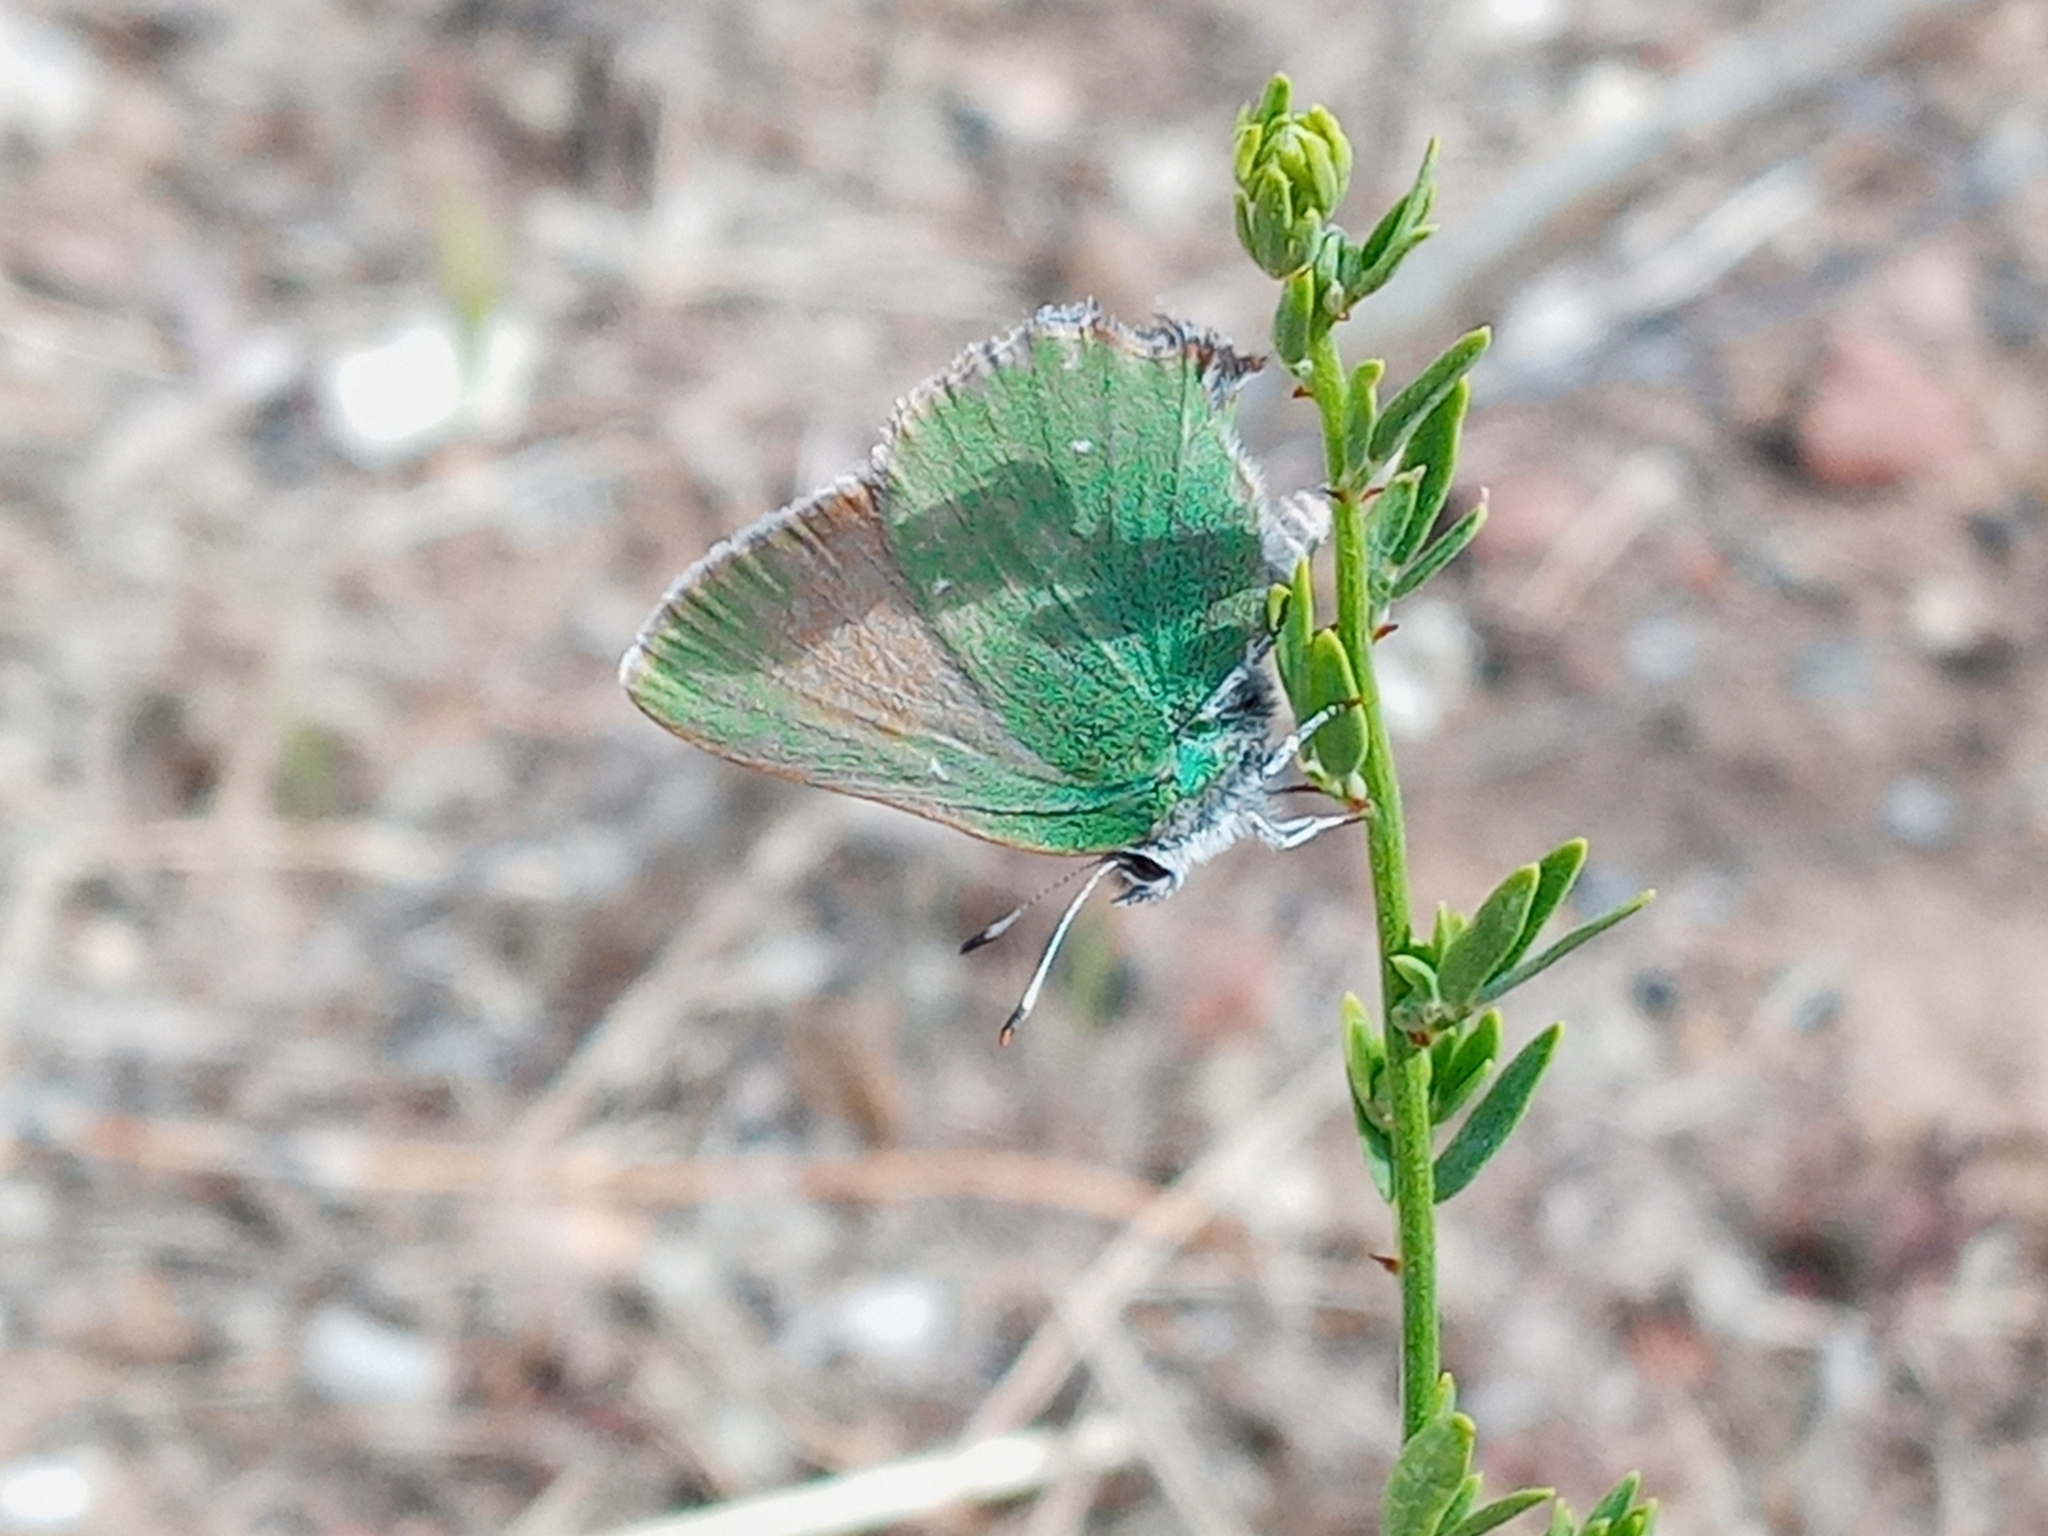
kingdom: Animalia
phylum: Arthropoda
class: Insecta
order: Lepidoptera
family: Lycaenidae
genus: Callophrys
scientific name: Callophrys dumetorum
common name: Bramble hairstreak
